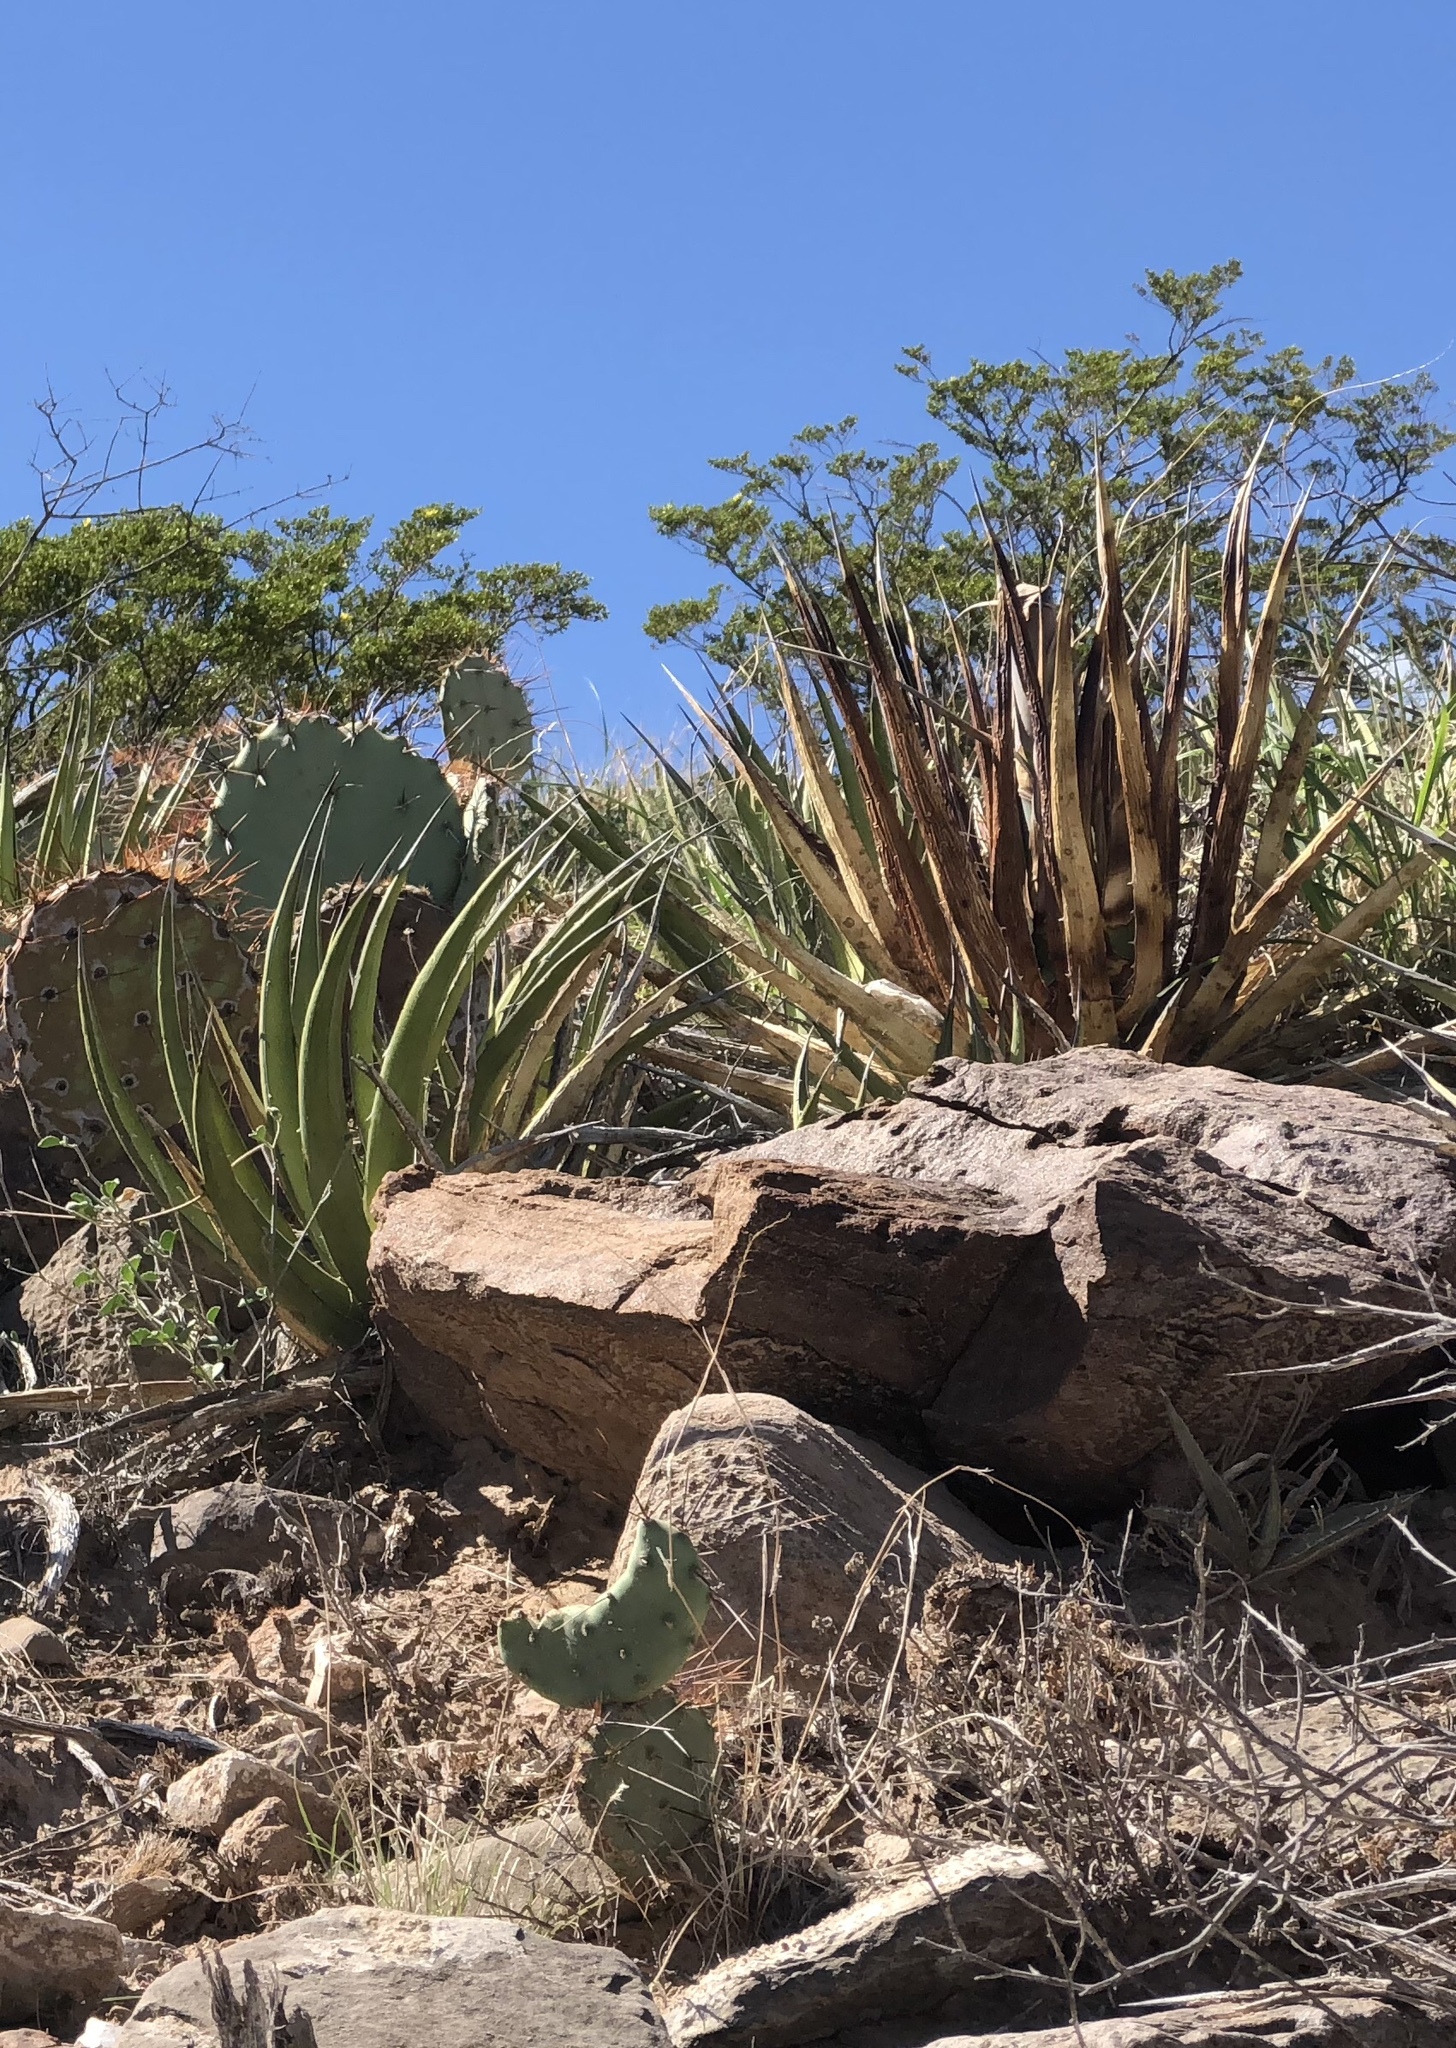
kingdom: Plantae
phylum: Tracheophyta
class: Liliopsida
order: Asparagales
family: Asparagaceae
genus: Agave
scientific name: Agave lechuguilla
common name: Lecheguilla agave
